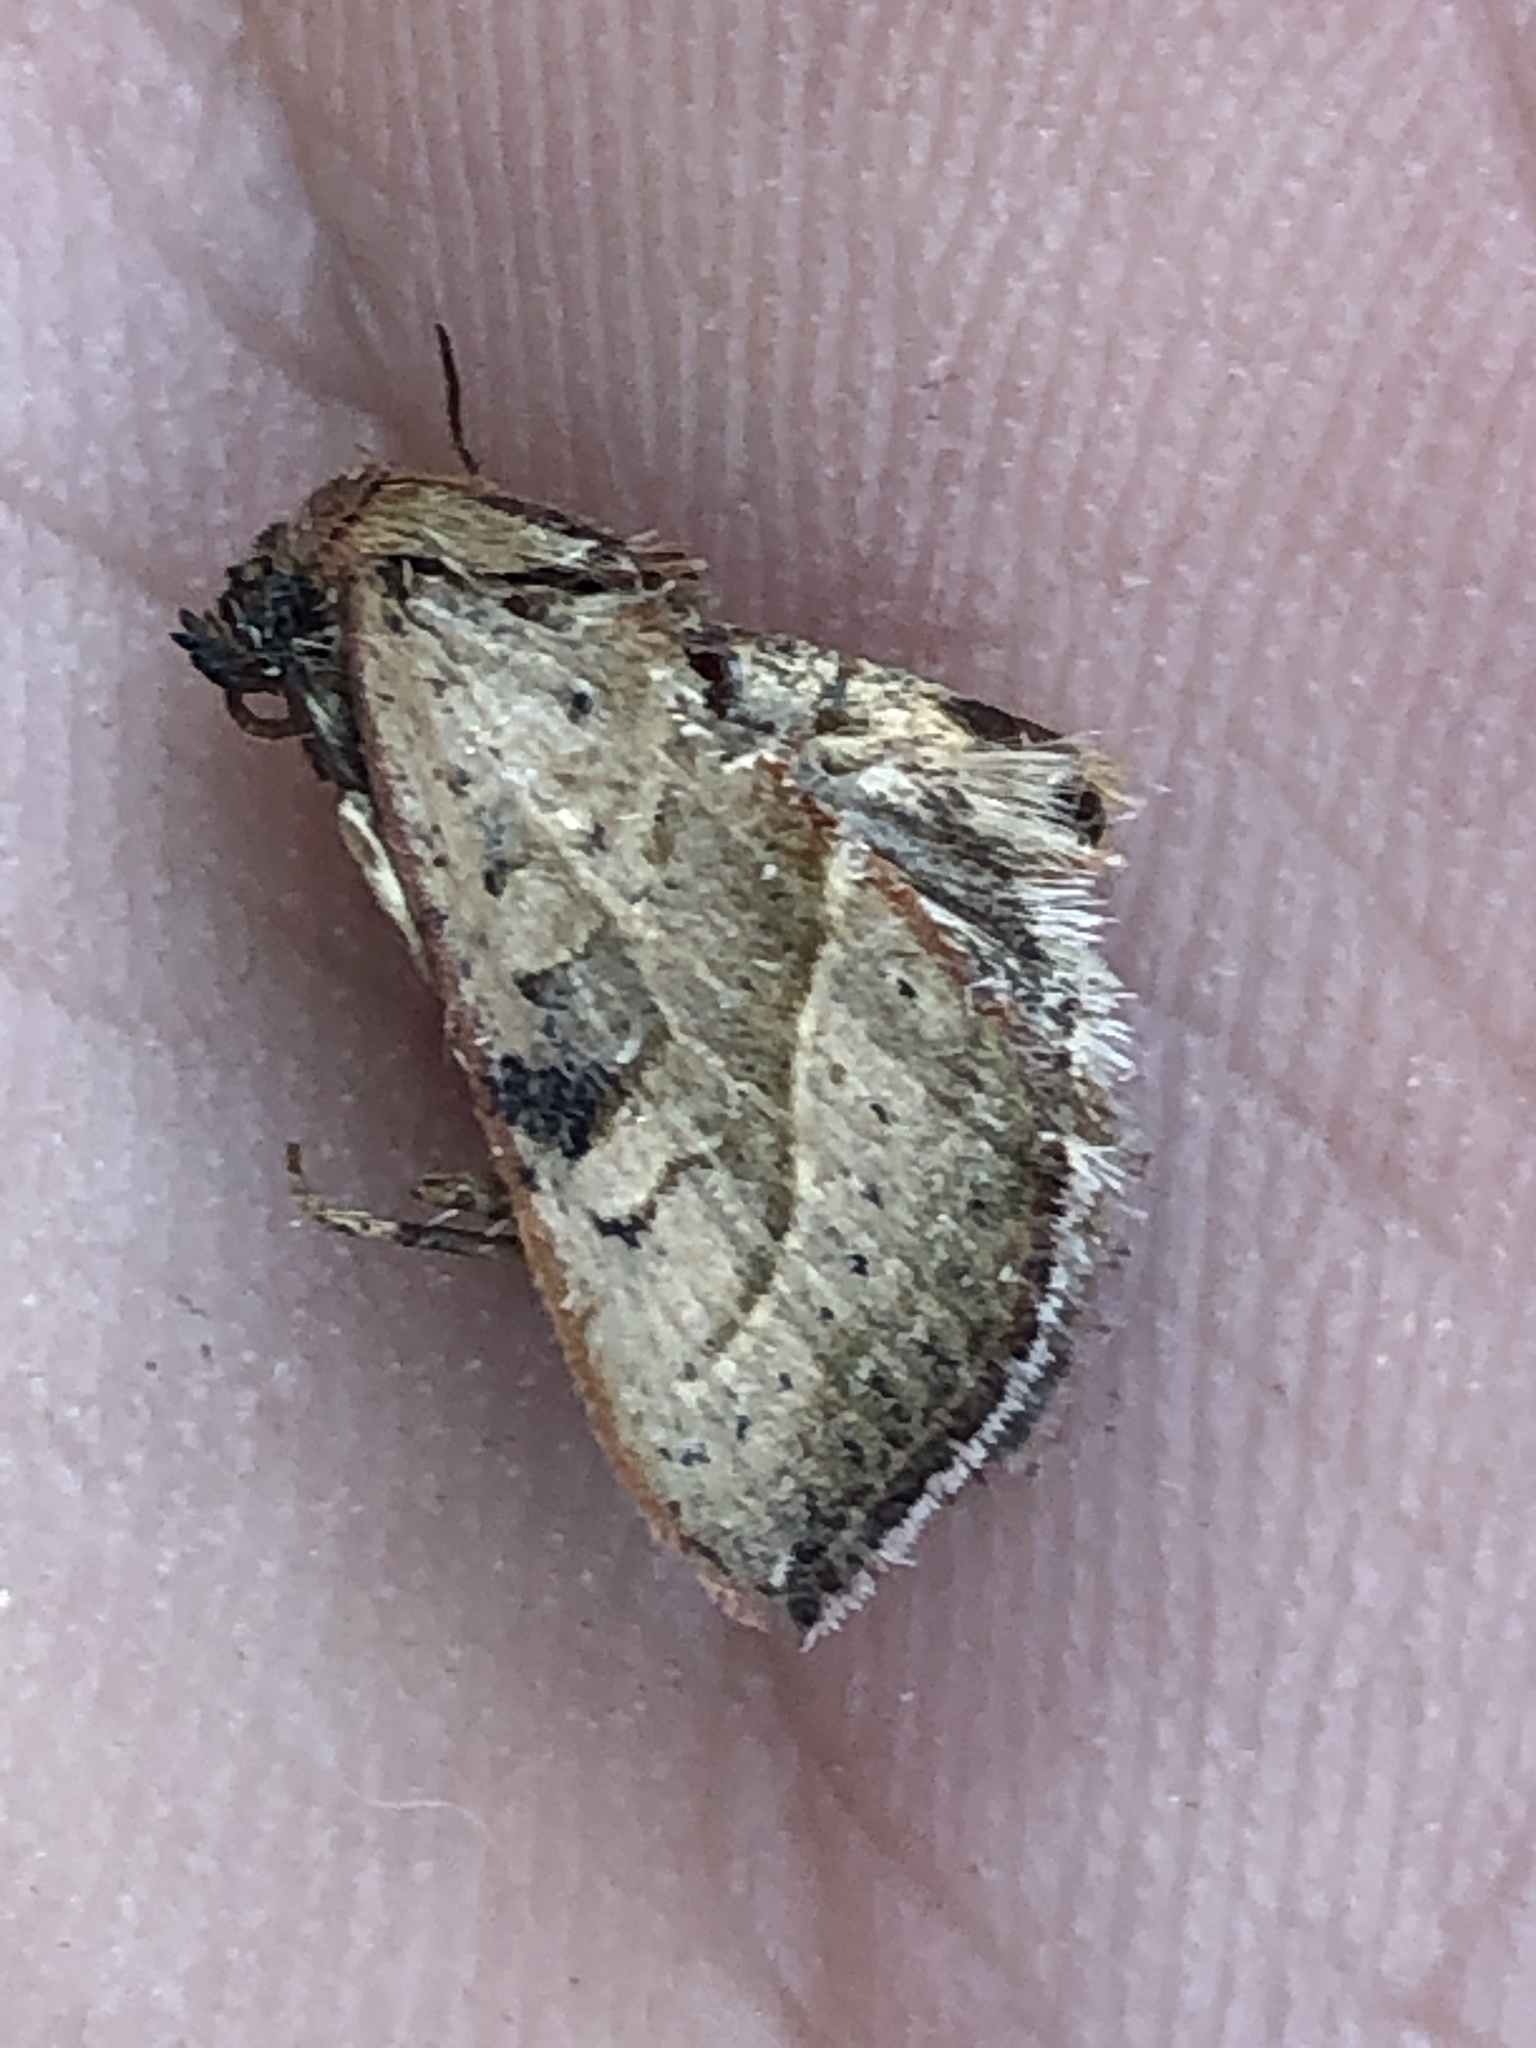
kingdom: Animalia
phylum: Arthropoda
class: Insecta
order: Lepidoptera
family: Noctuidae
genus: Galgula
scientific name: Galgula partita
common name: Wedgeling
